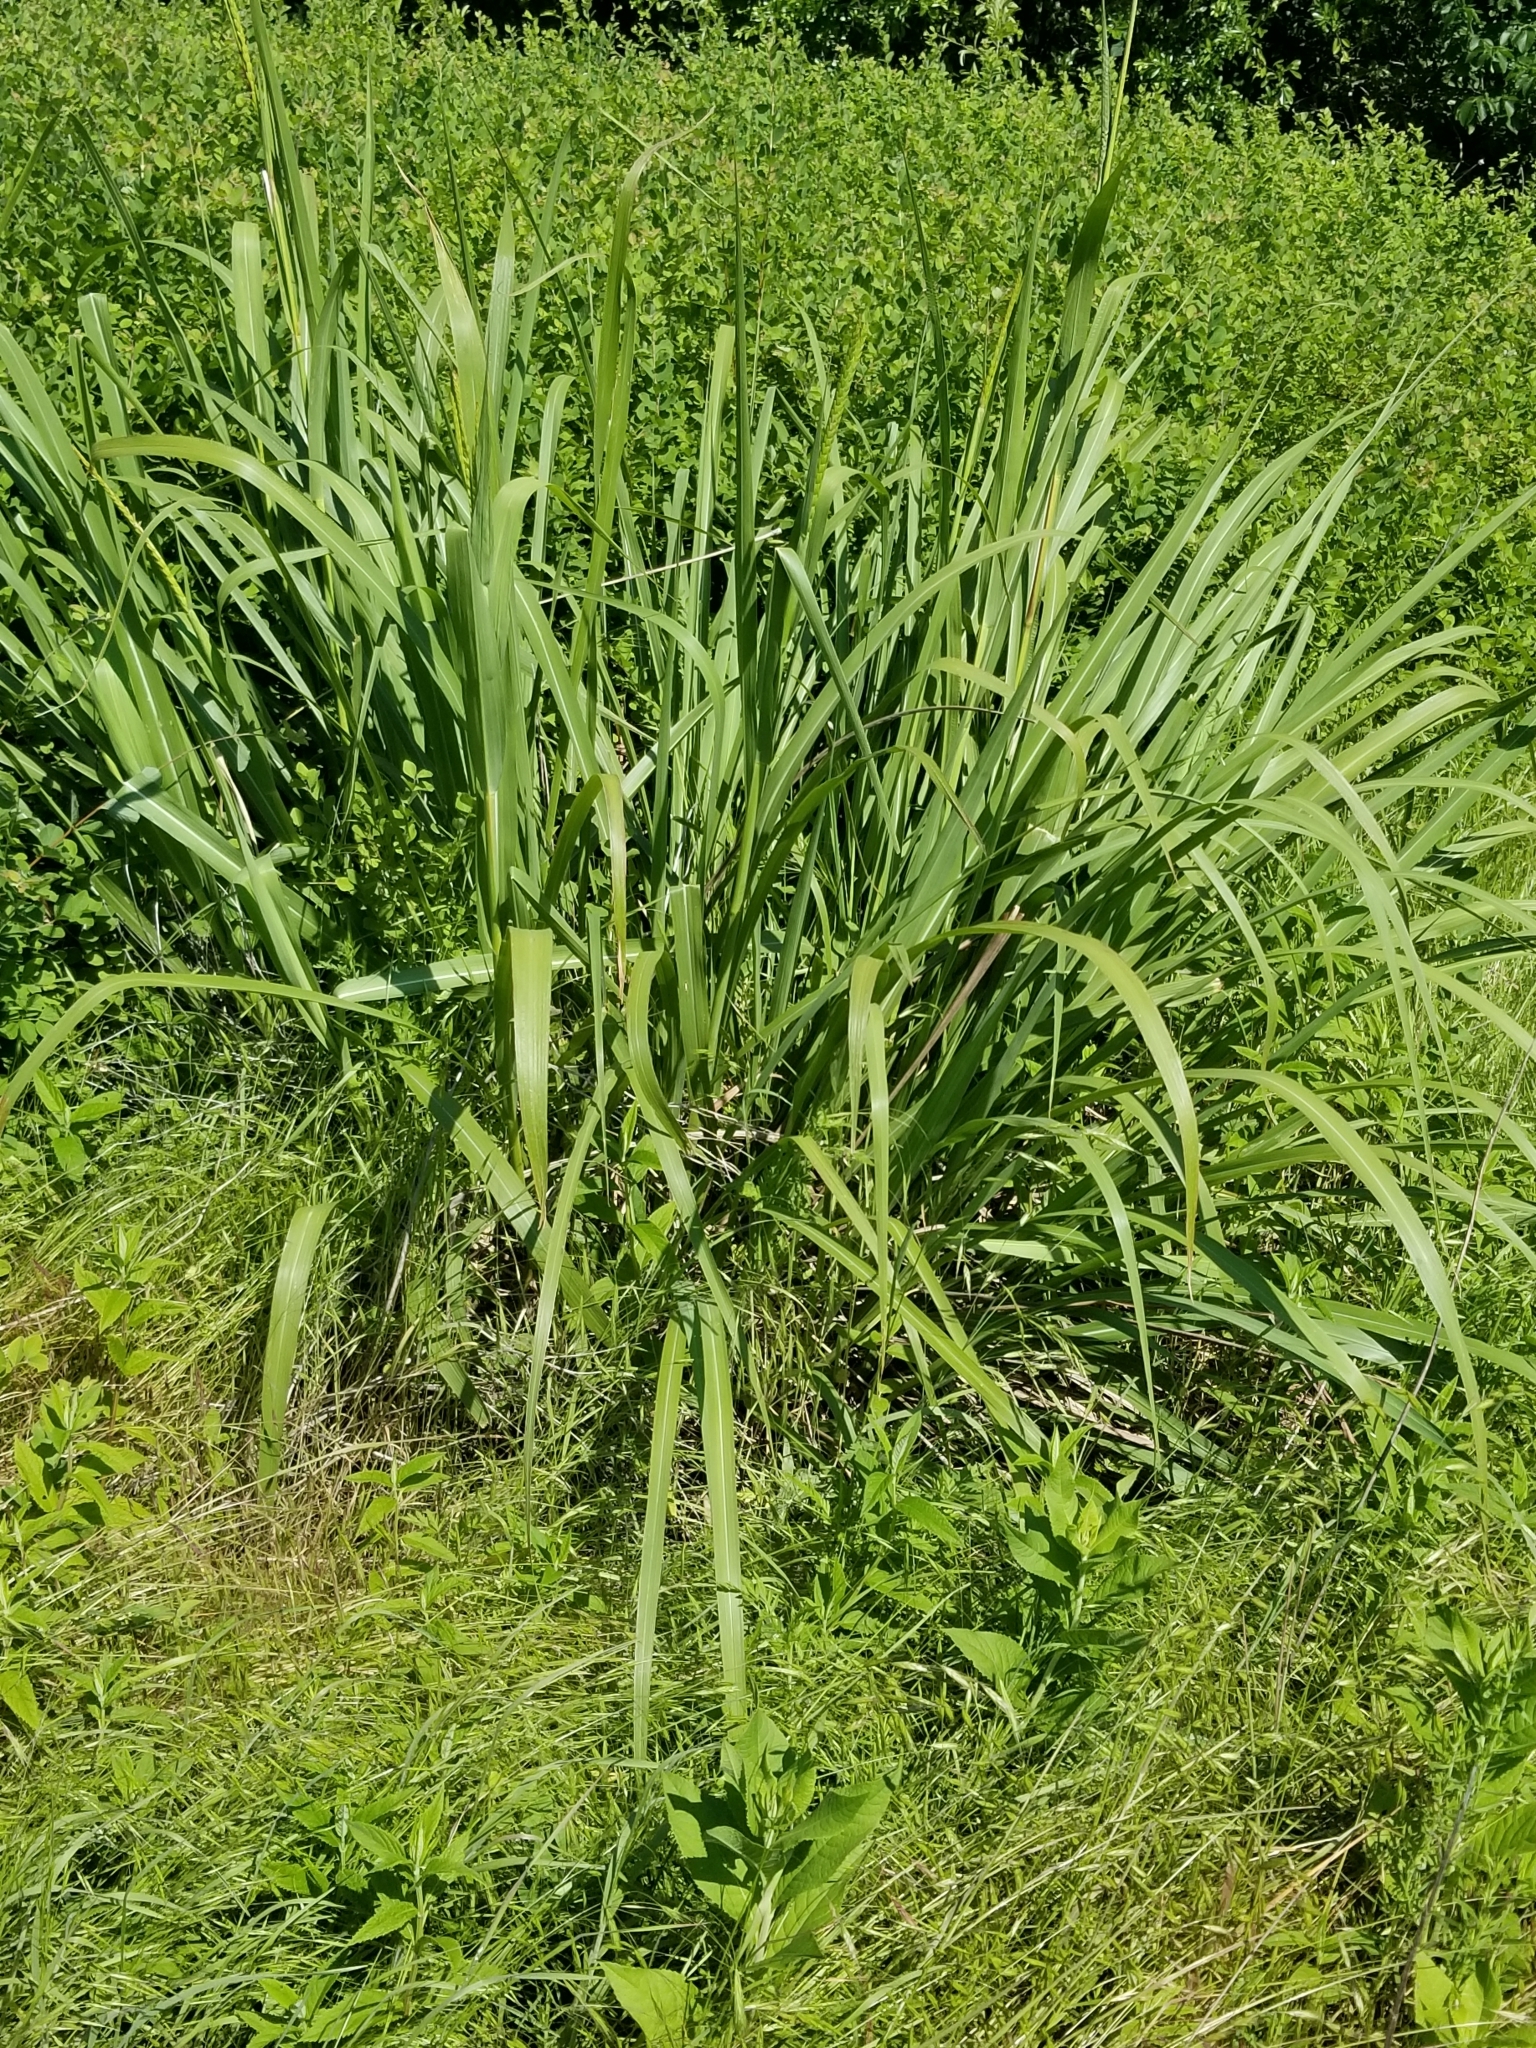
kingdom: Plantae
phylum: Tracheophyta
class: Liliopsida
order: Poales
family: Poaceae
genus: Tripsacum
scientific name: Tripsacum dactyloides
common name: Buffalo-grass
